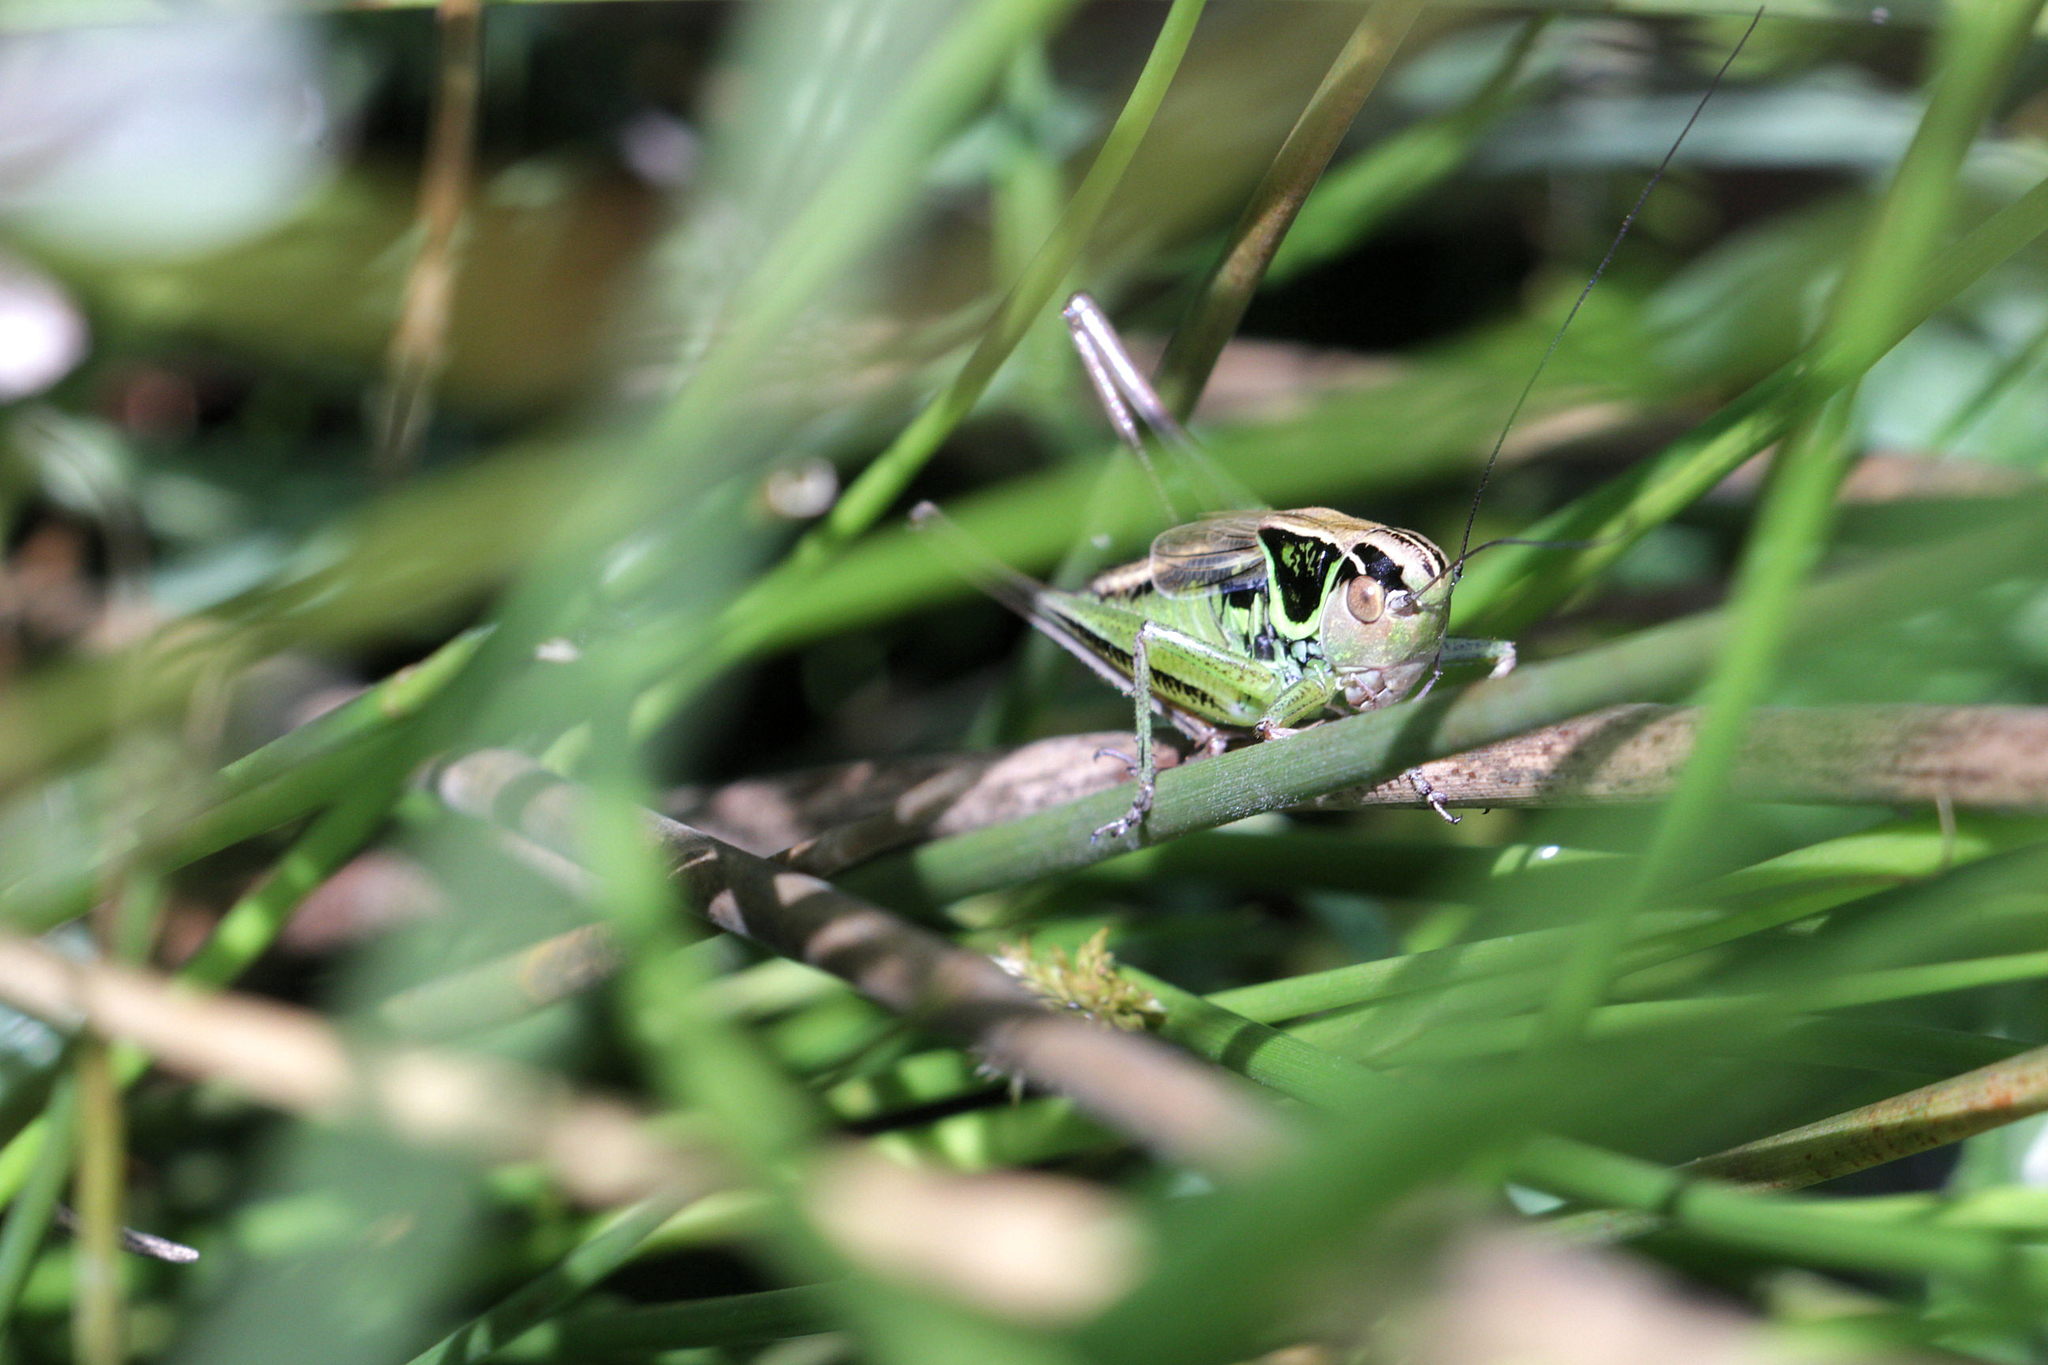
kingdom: Animalia
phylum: Arthropoda
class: Insecta
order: Orthoptera
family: Tettigoniidae
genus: Roeseliana
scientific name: Roeseliana roeselii
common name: Roesel's bush cricket
